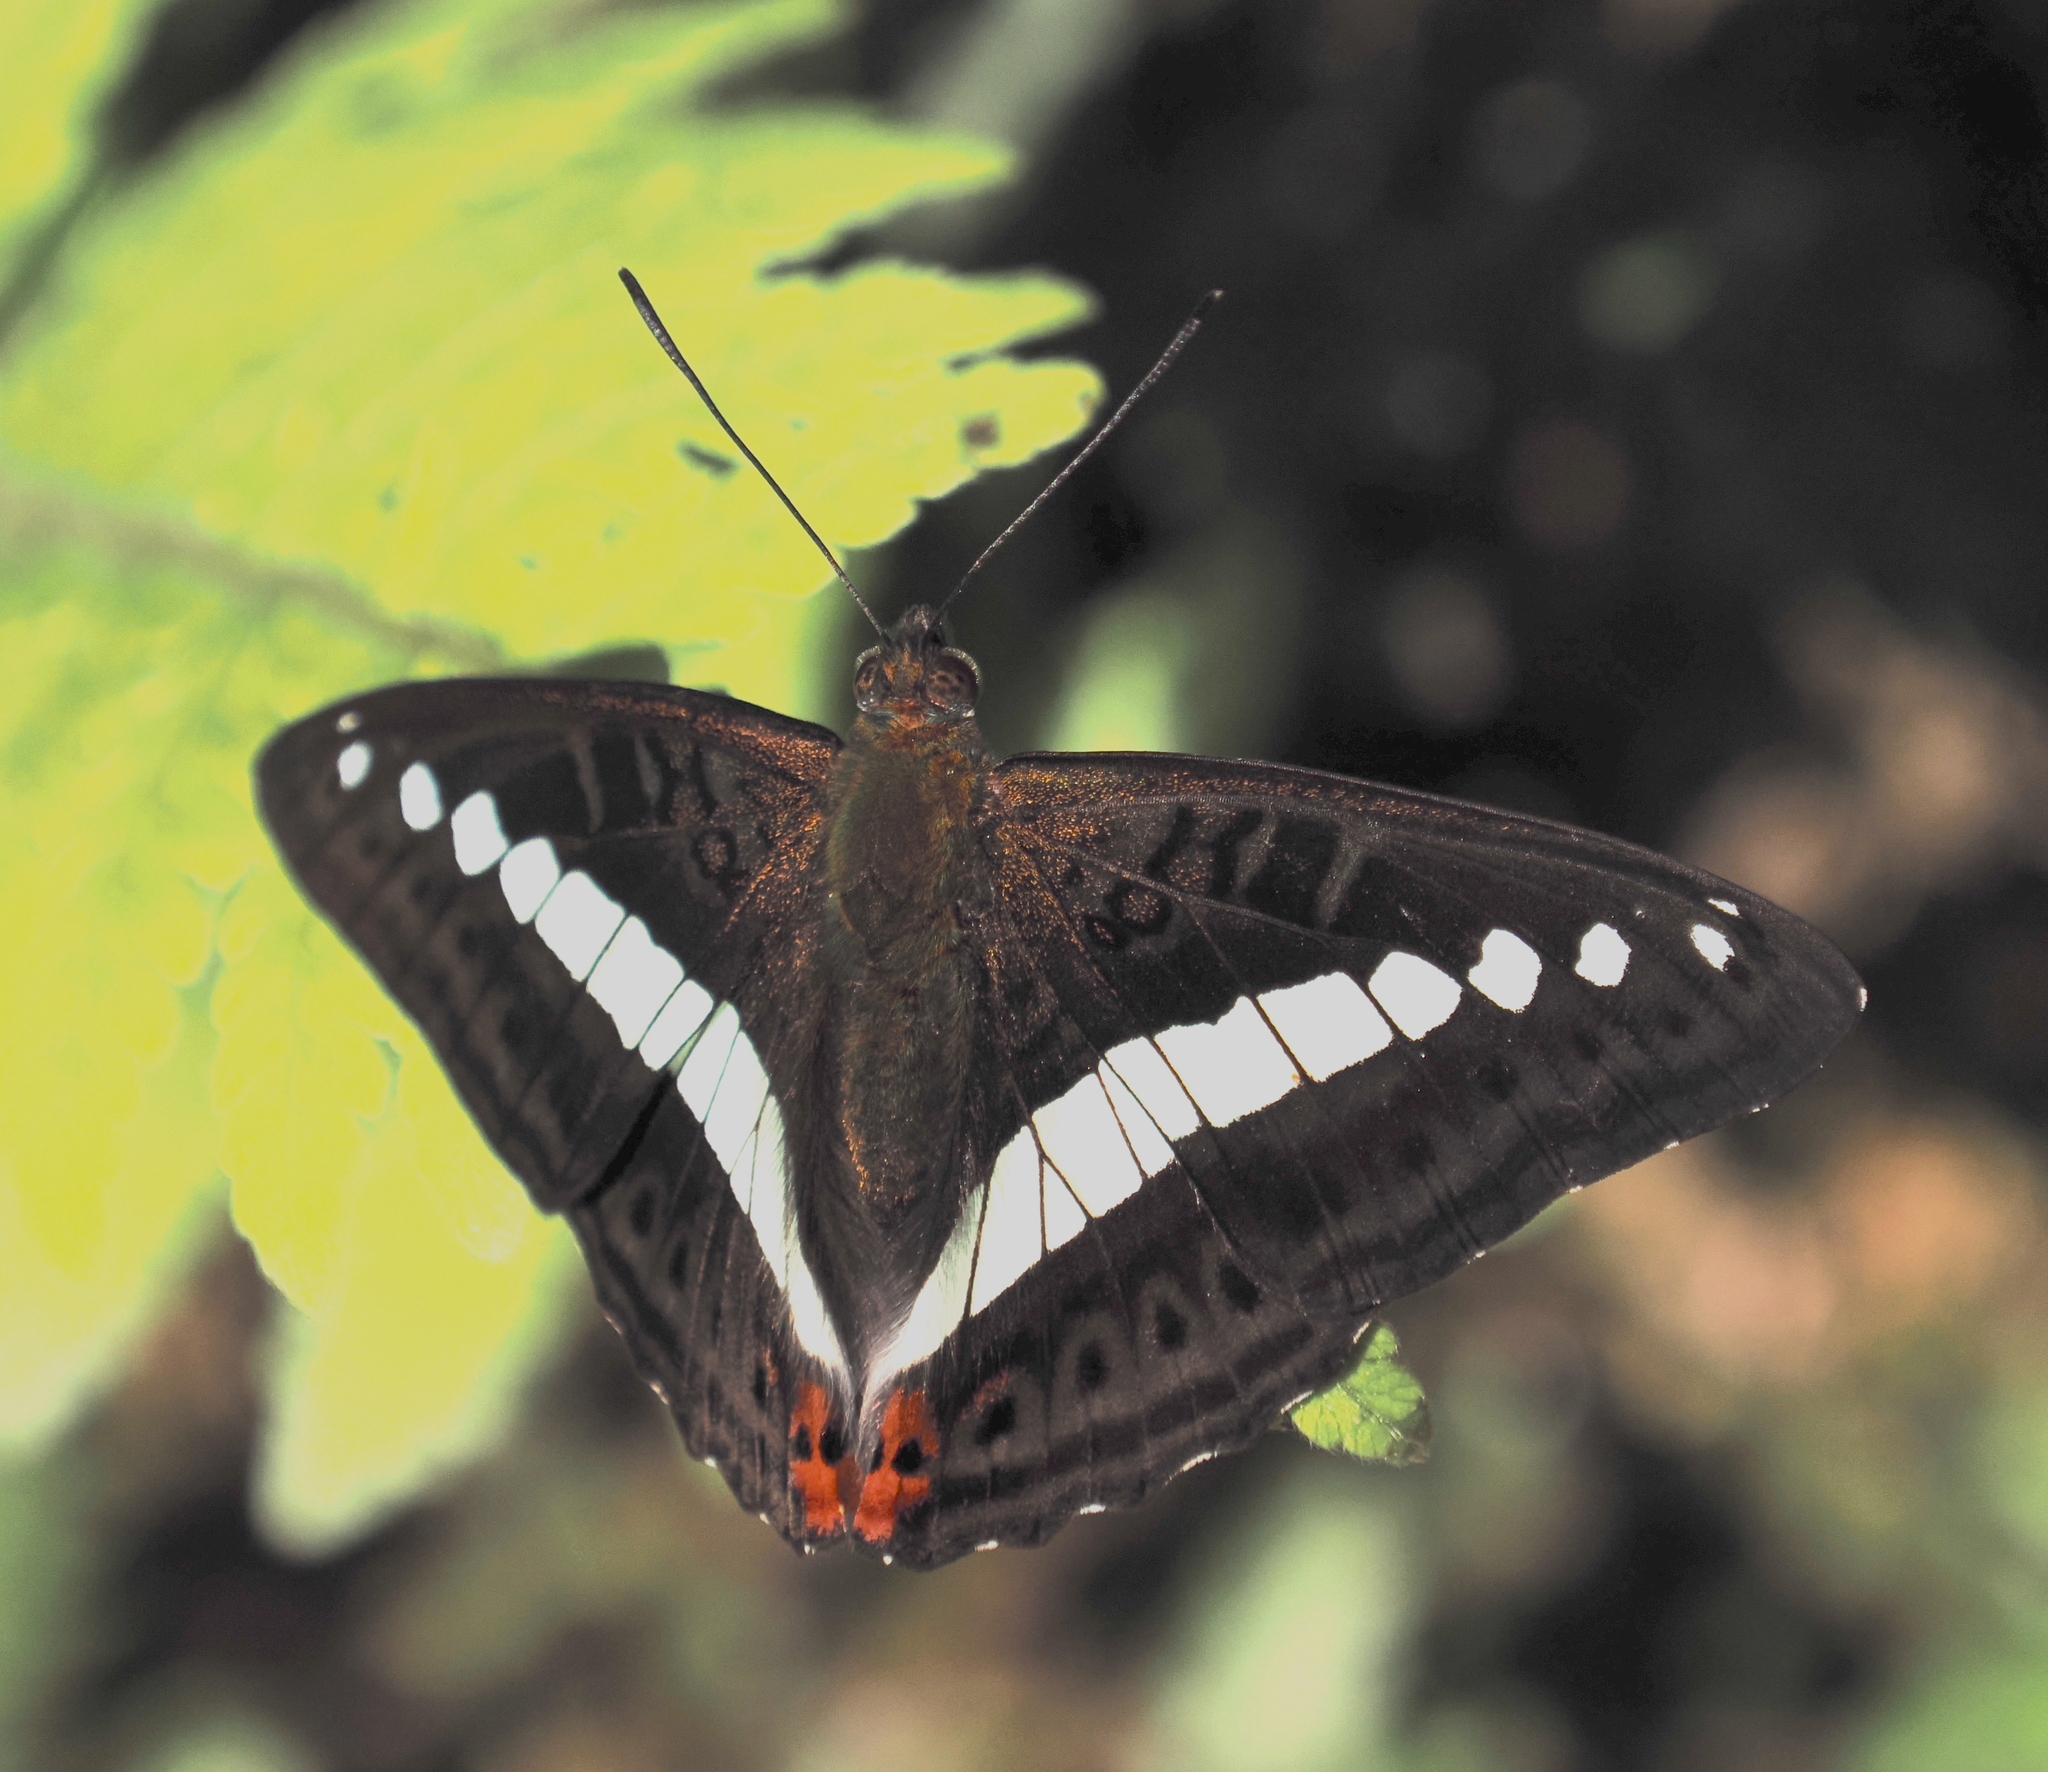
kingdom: Animalia
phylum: Arthropoda
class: Insecta
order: Lepidoptera
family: Nymphalidae
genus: Limenitis
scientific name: Limenitis Sumalia daraxa
